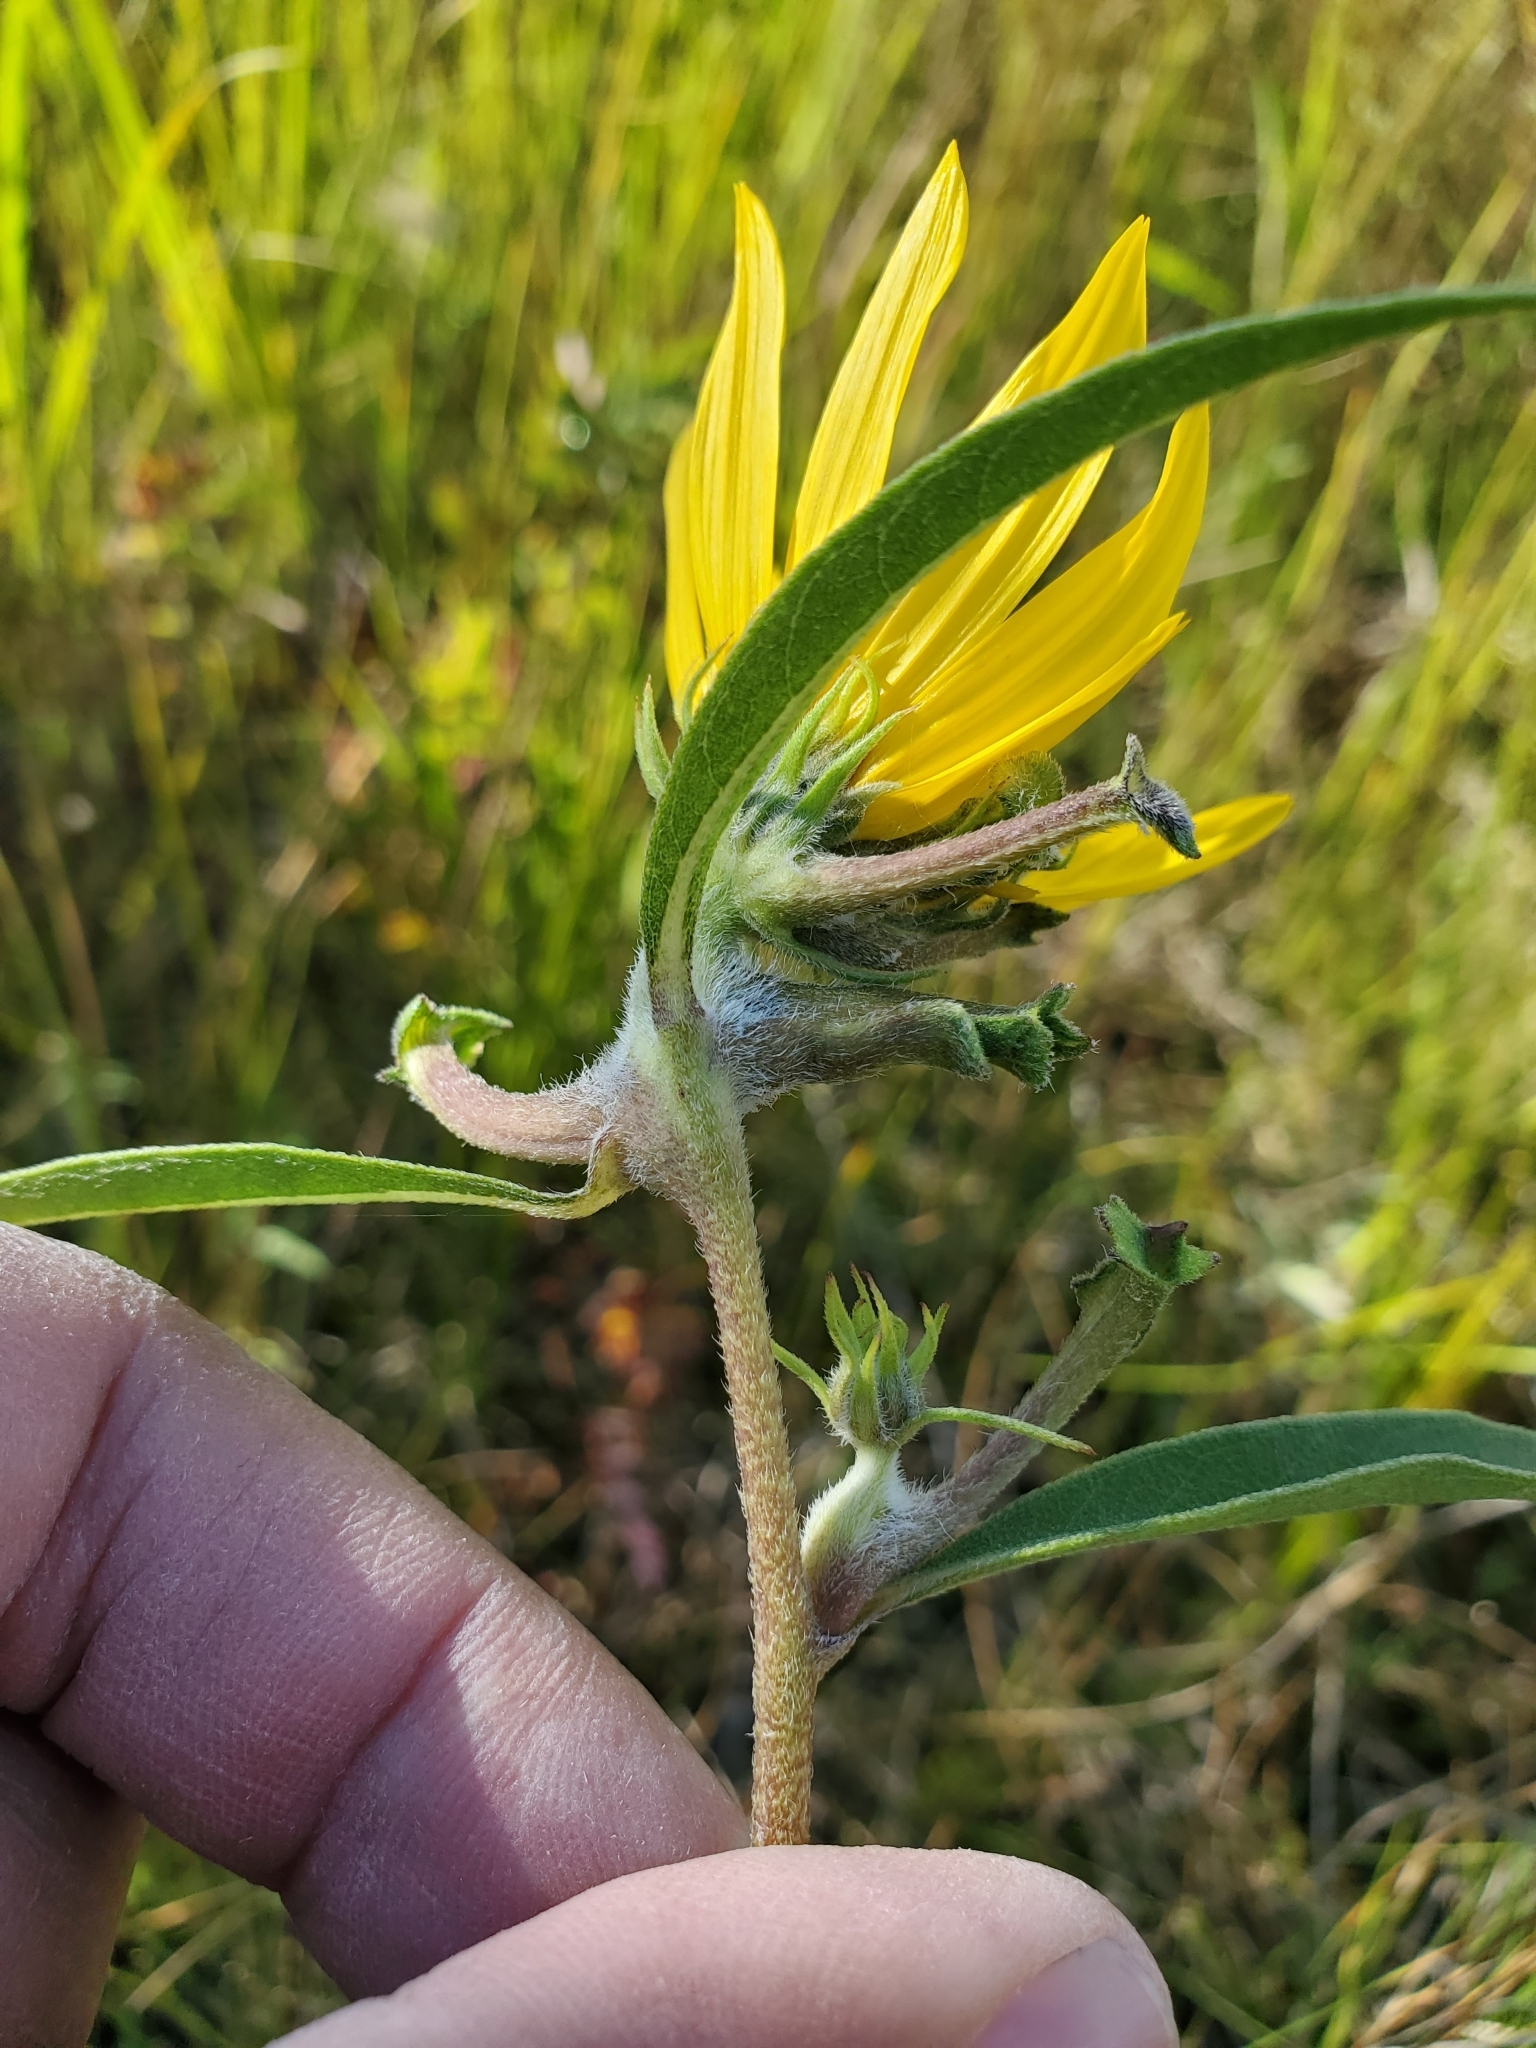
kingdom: Animalia
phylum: Arthropoda
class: Insecta
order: Diptera
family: Cecidomyiidae
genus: Olpodiplosis
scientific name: Olpodiplosis helianthi
